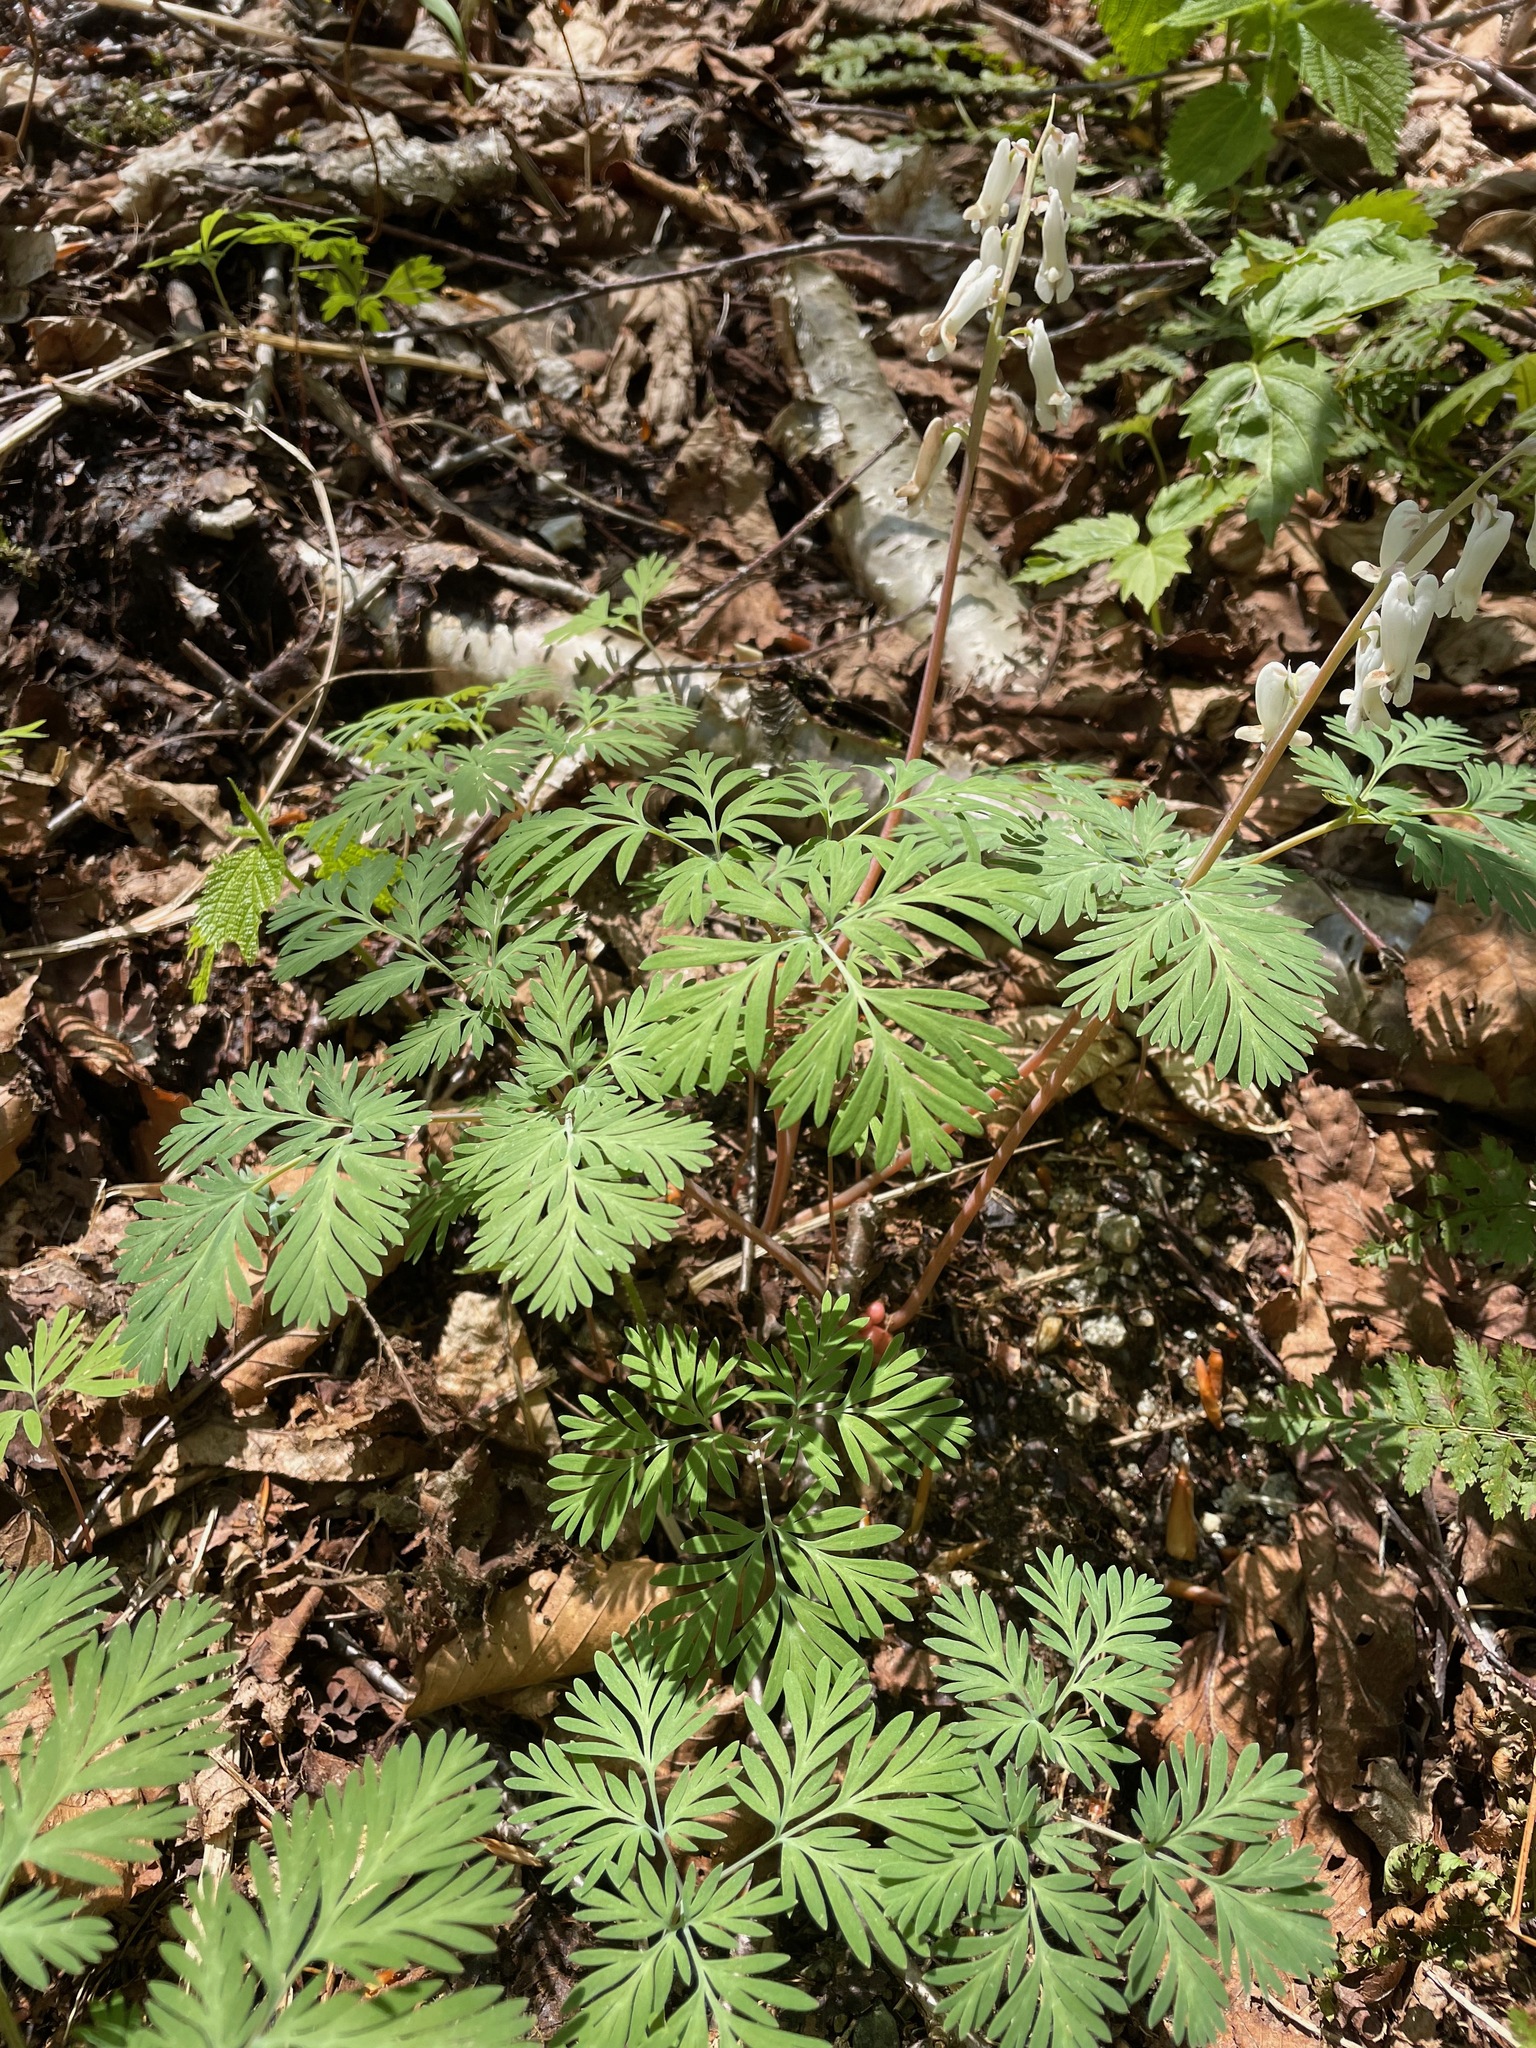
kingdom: Plantae
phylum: Tracheophyta
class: Magnoliopsida
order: Ranunculales
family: Papaveraceae
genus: Dicentra
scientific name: Dicentra canadensis
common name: Squirrel-corn
